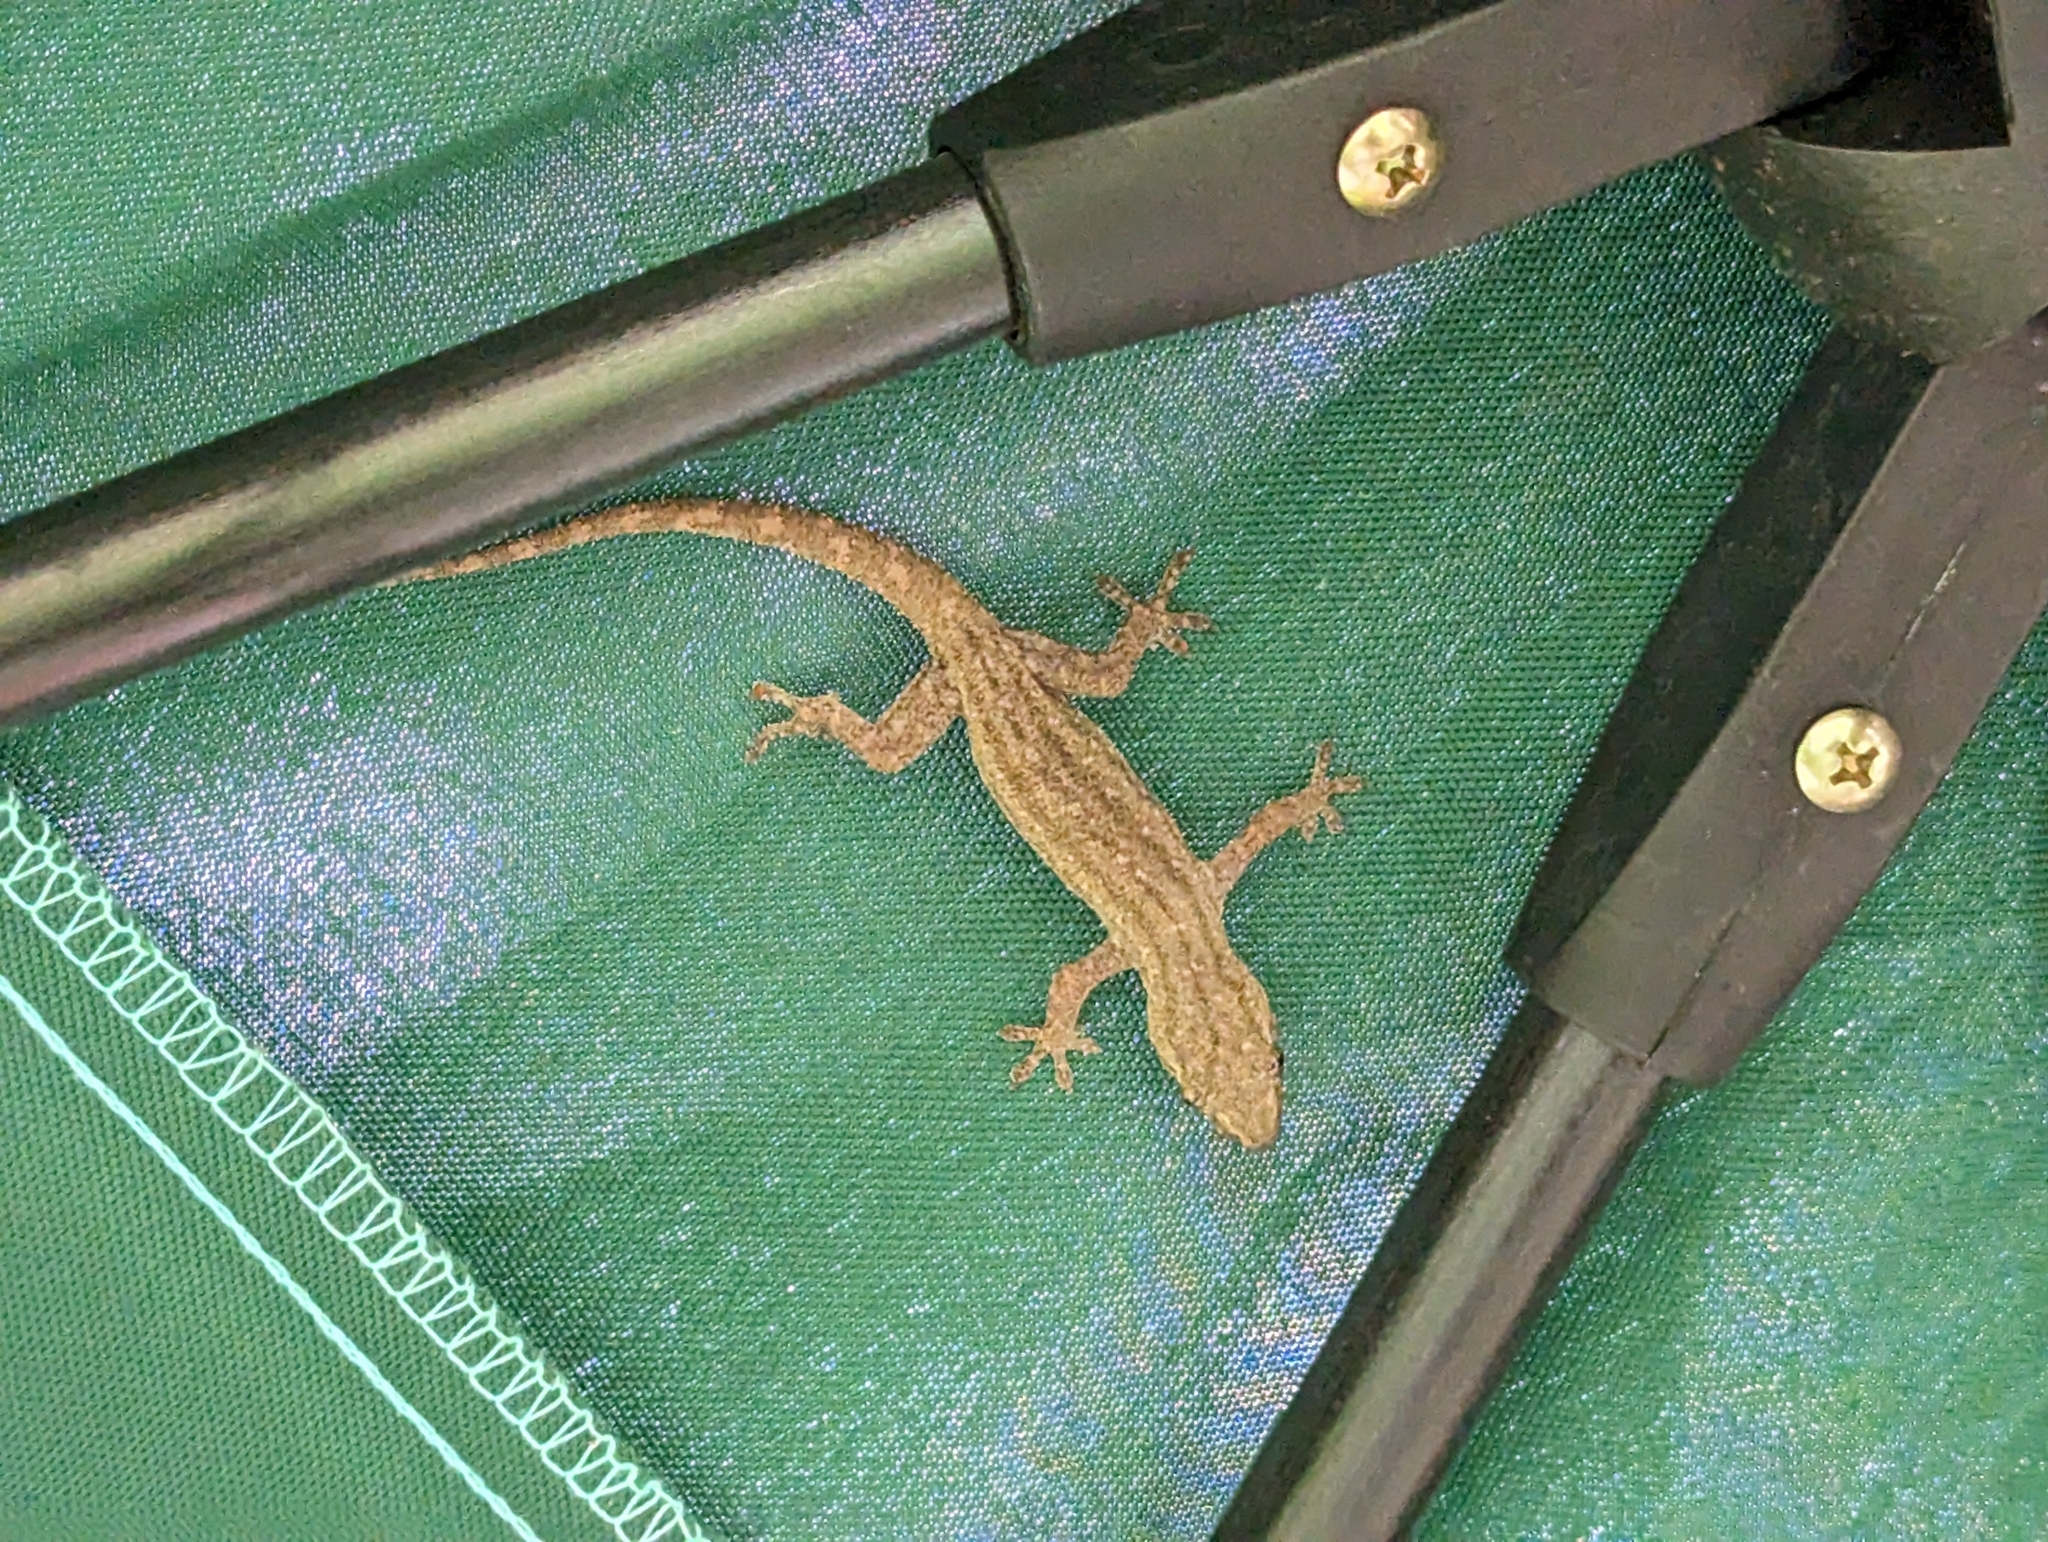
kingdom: Animalia
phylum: Chordata
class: Squamata
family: Gekkonidae
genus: Hemidactylus
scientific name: Hemidactylus frenatus
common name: Common house gecko
